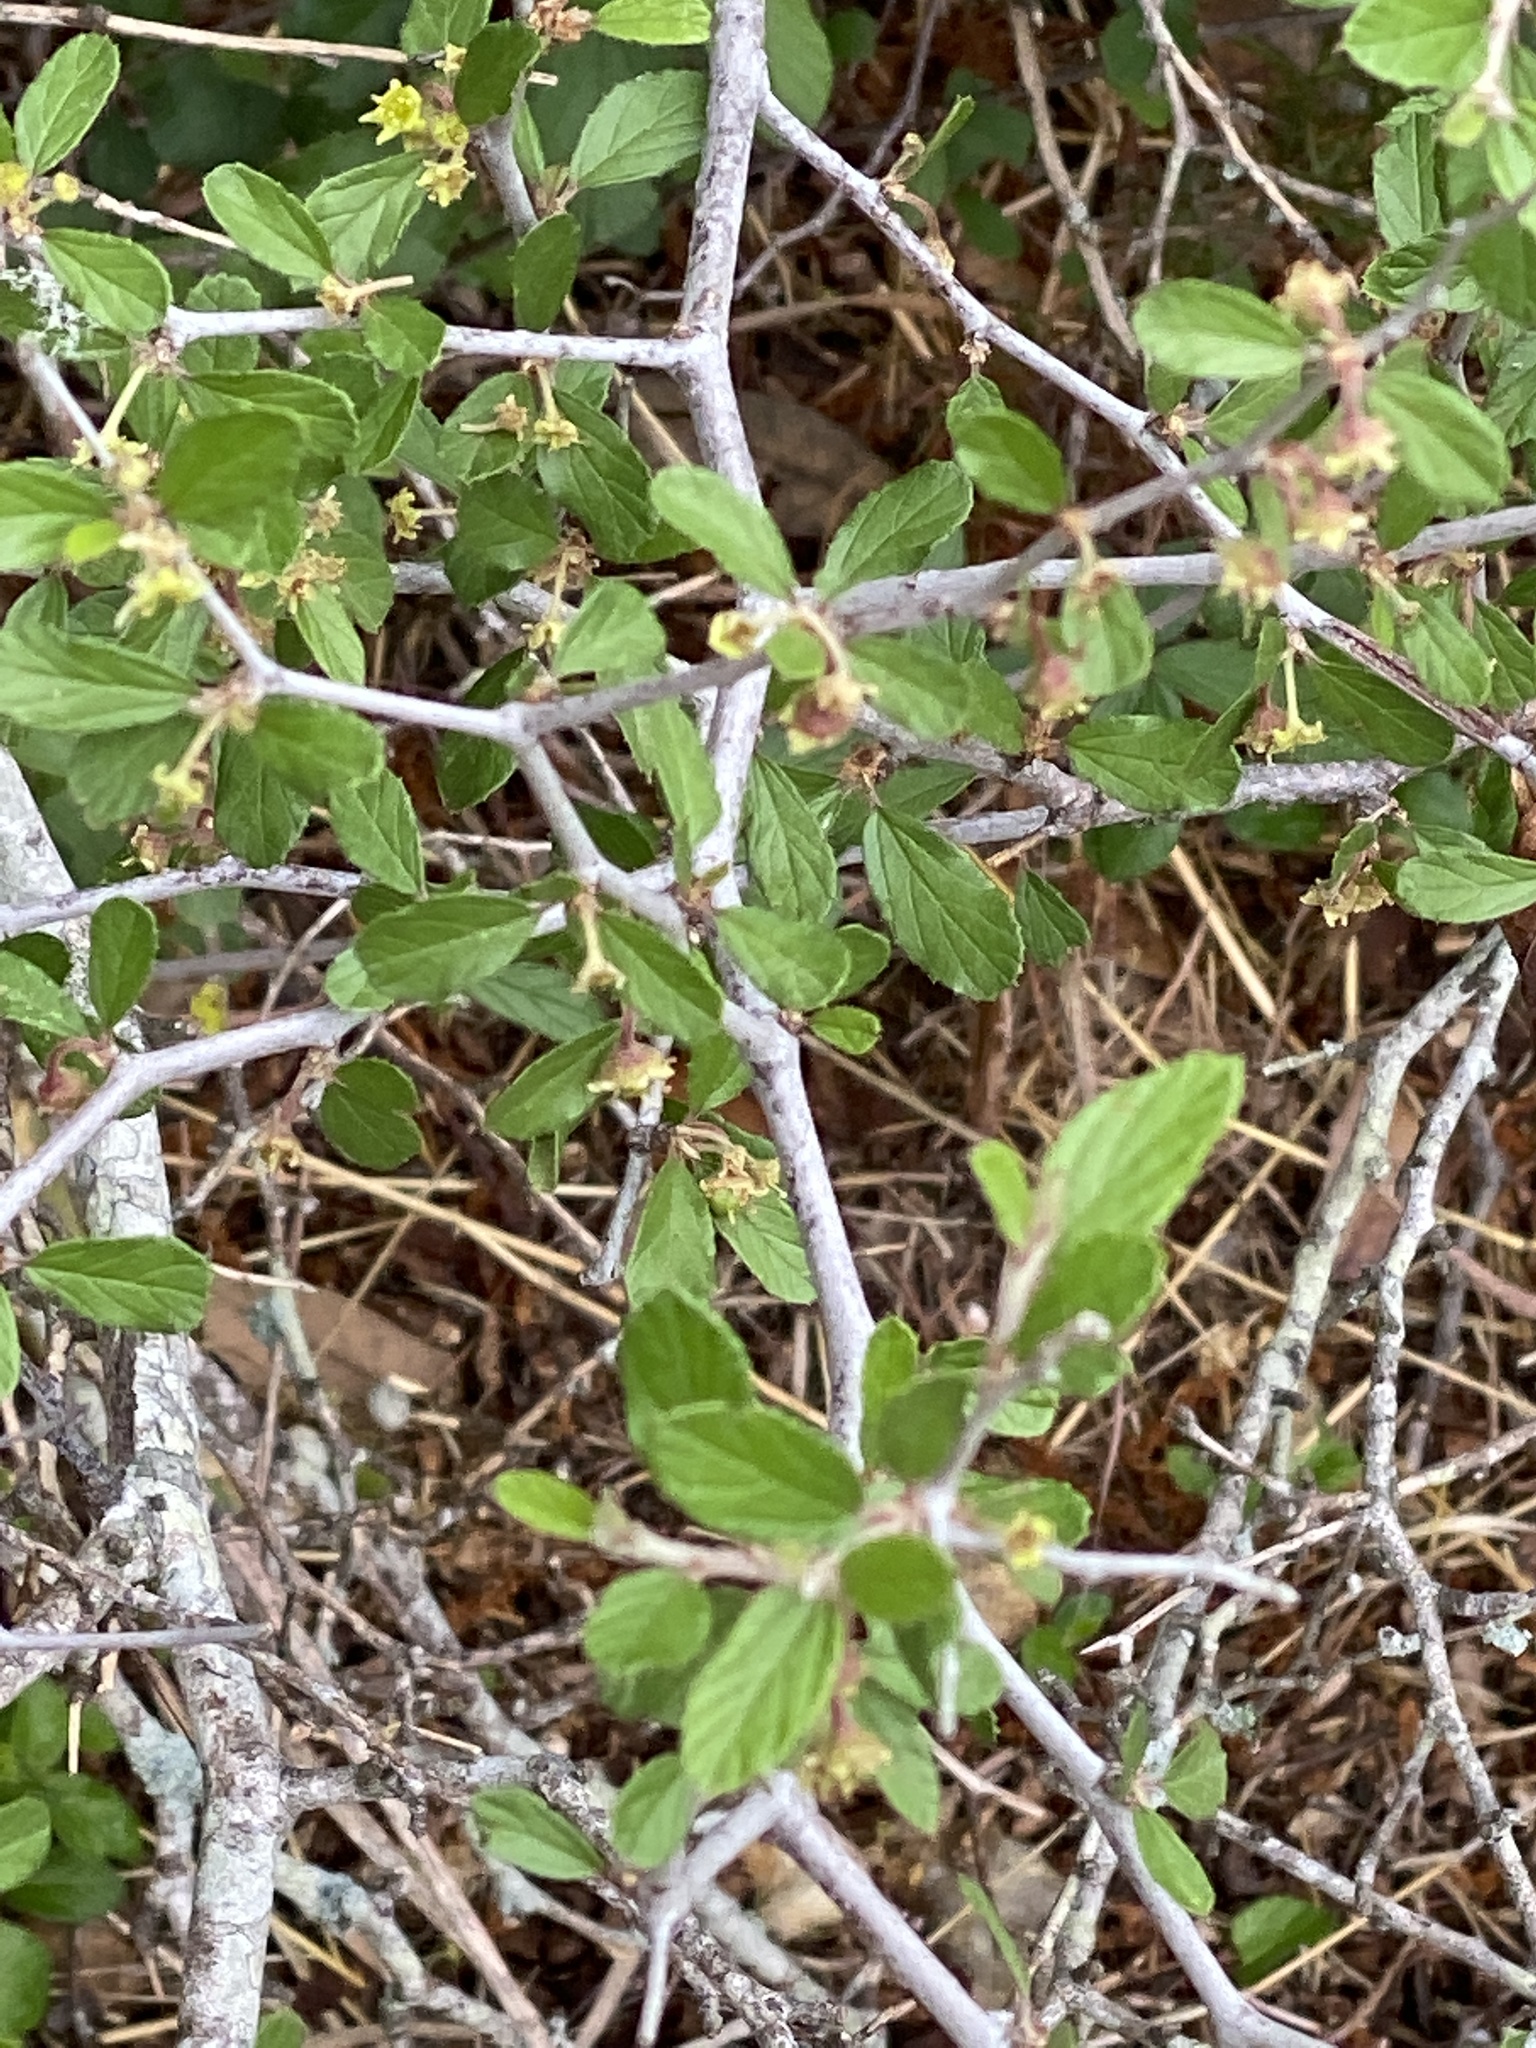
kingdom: Plantae
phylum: Tracheophyta
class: Magnoliopsida
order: Rosales
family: Rhamnaceae
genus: Colubrina
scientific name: Colubrina texensis
